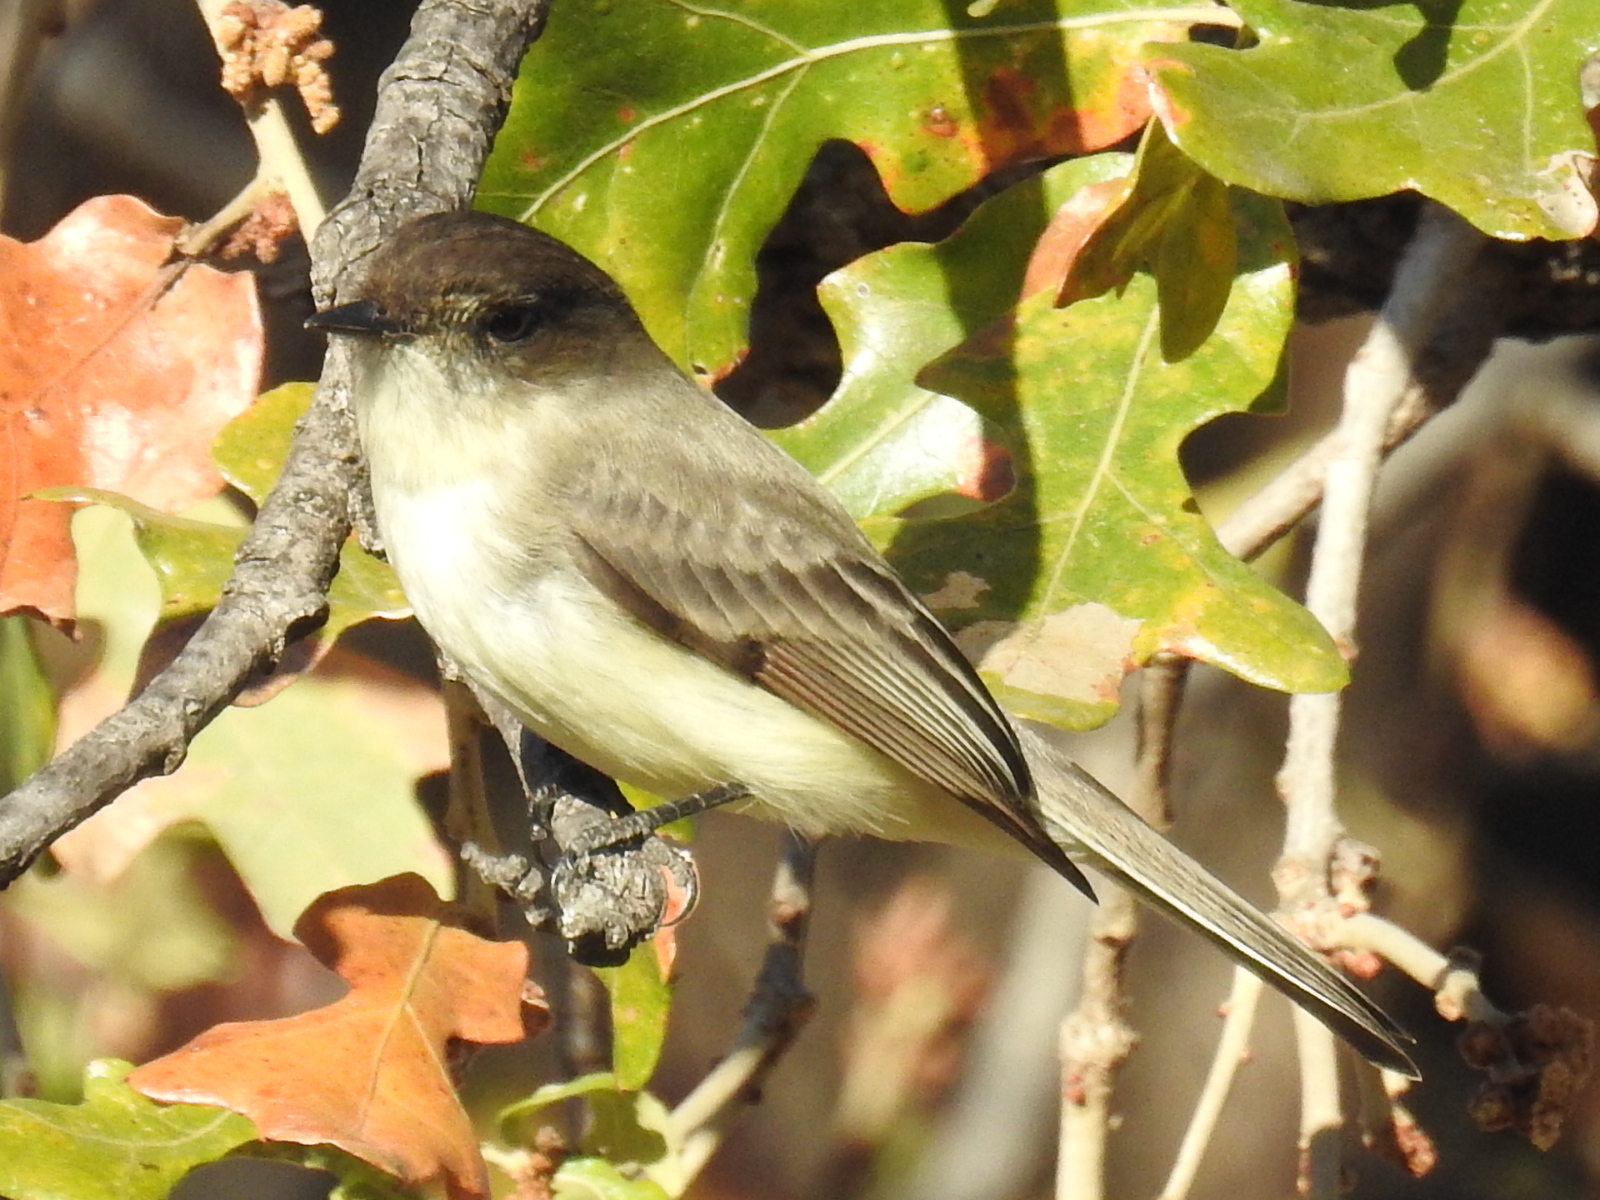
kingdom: Animalia
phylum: Chordata
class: Aves
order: Passeriformes
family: Tyrannidae
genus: Sayornis
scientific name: Sayornis phoebe
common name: Eastern phoebe
